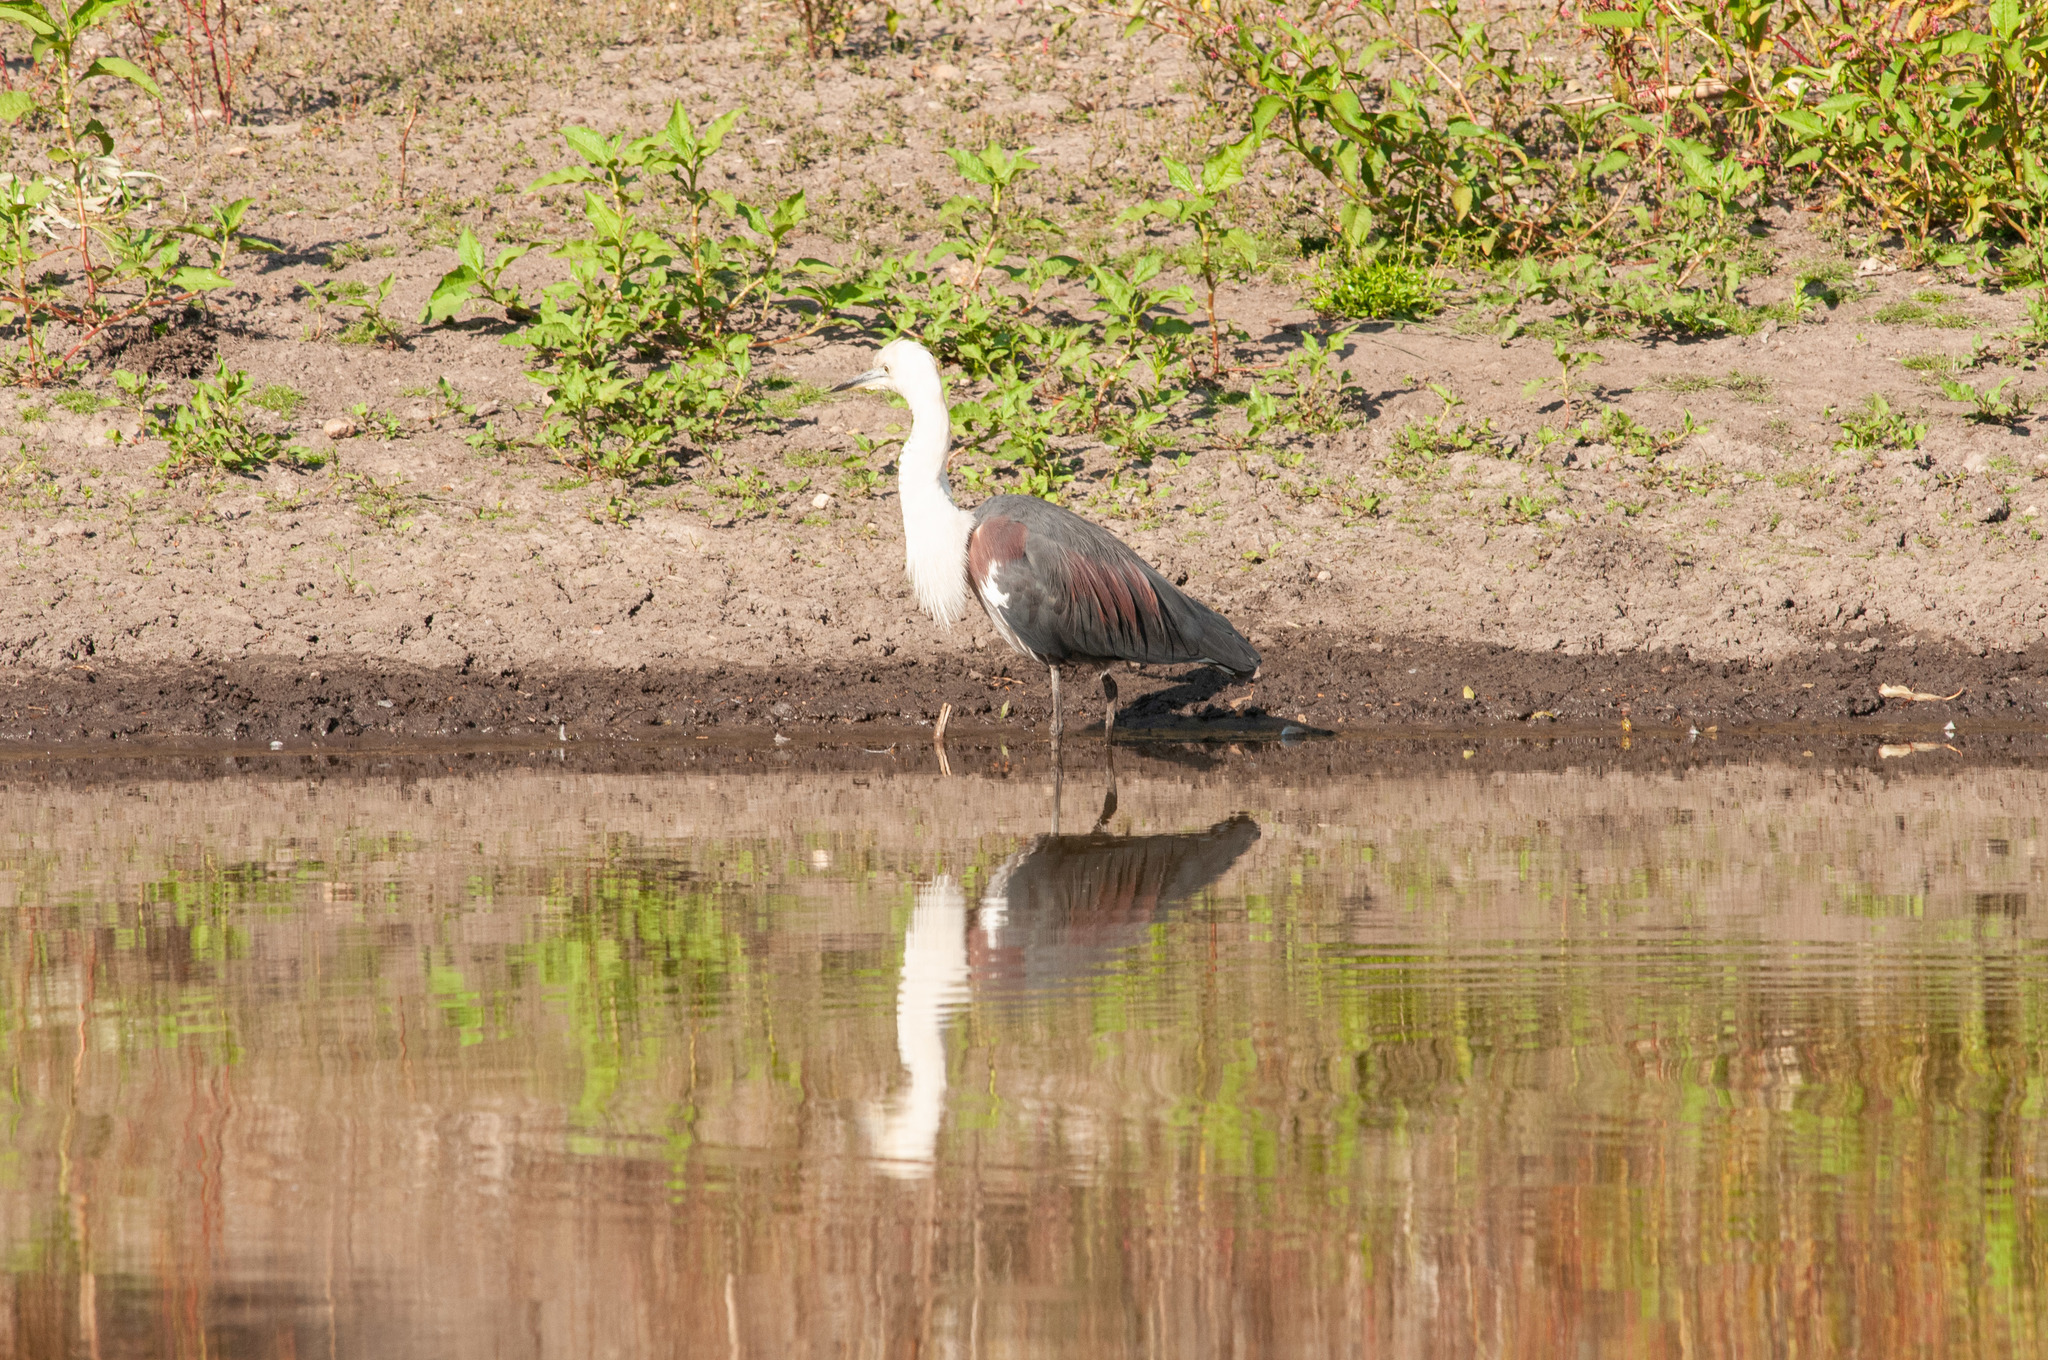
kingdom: Animalia
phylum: Chordata
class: Aves
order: Pelecaniformes
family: Ardeidae
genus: Ardea
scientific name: Ardea pacifica
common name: White-necked heron
